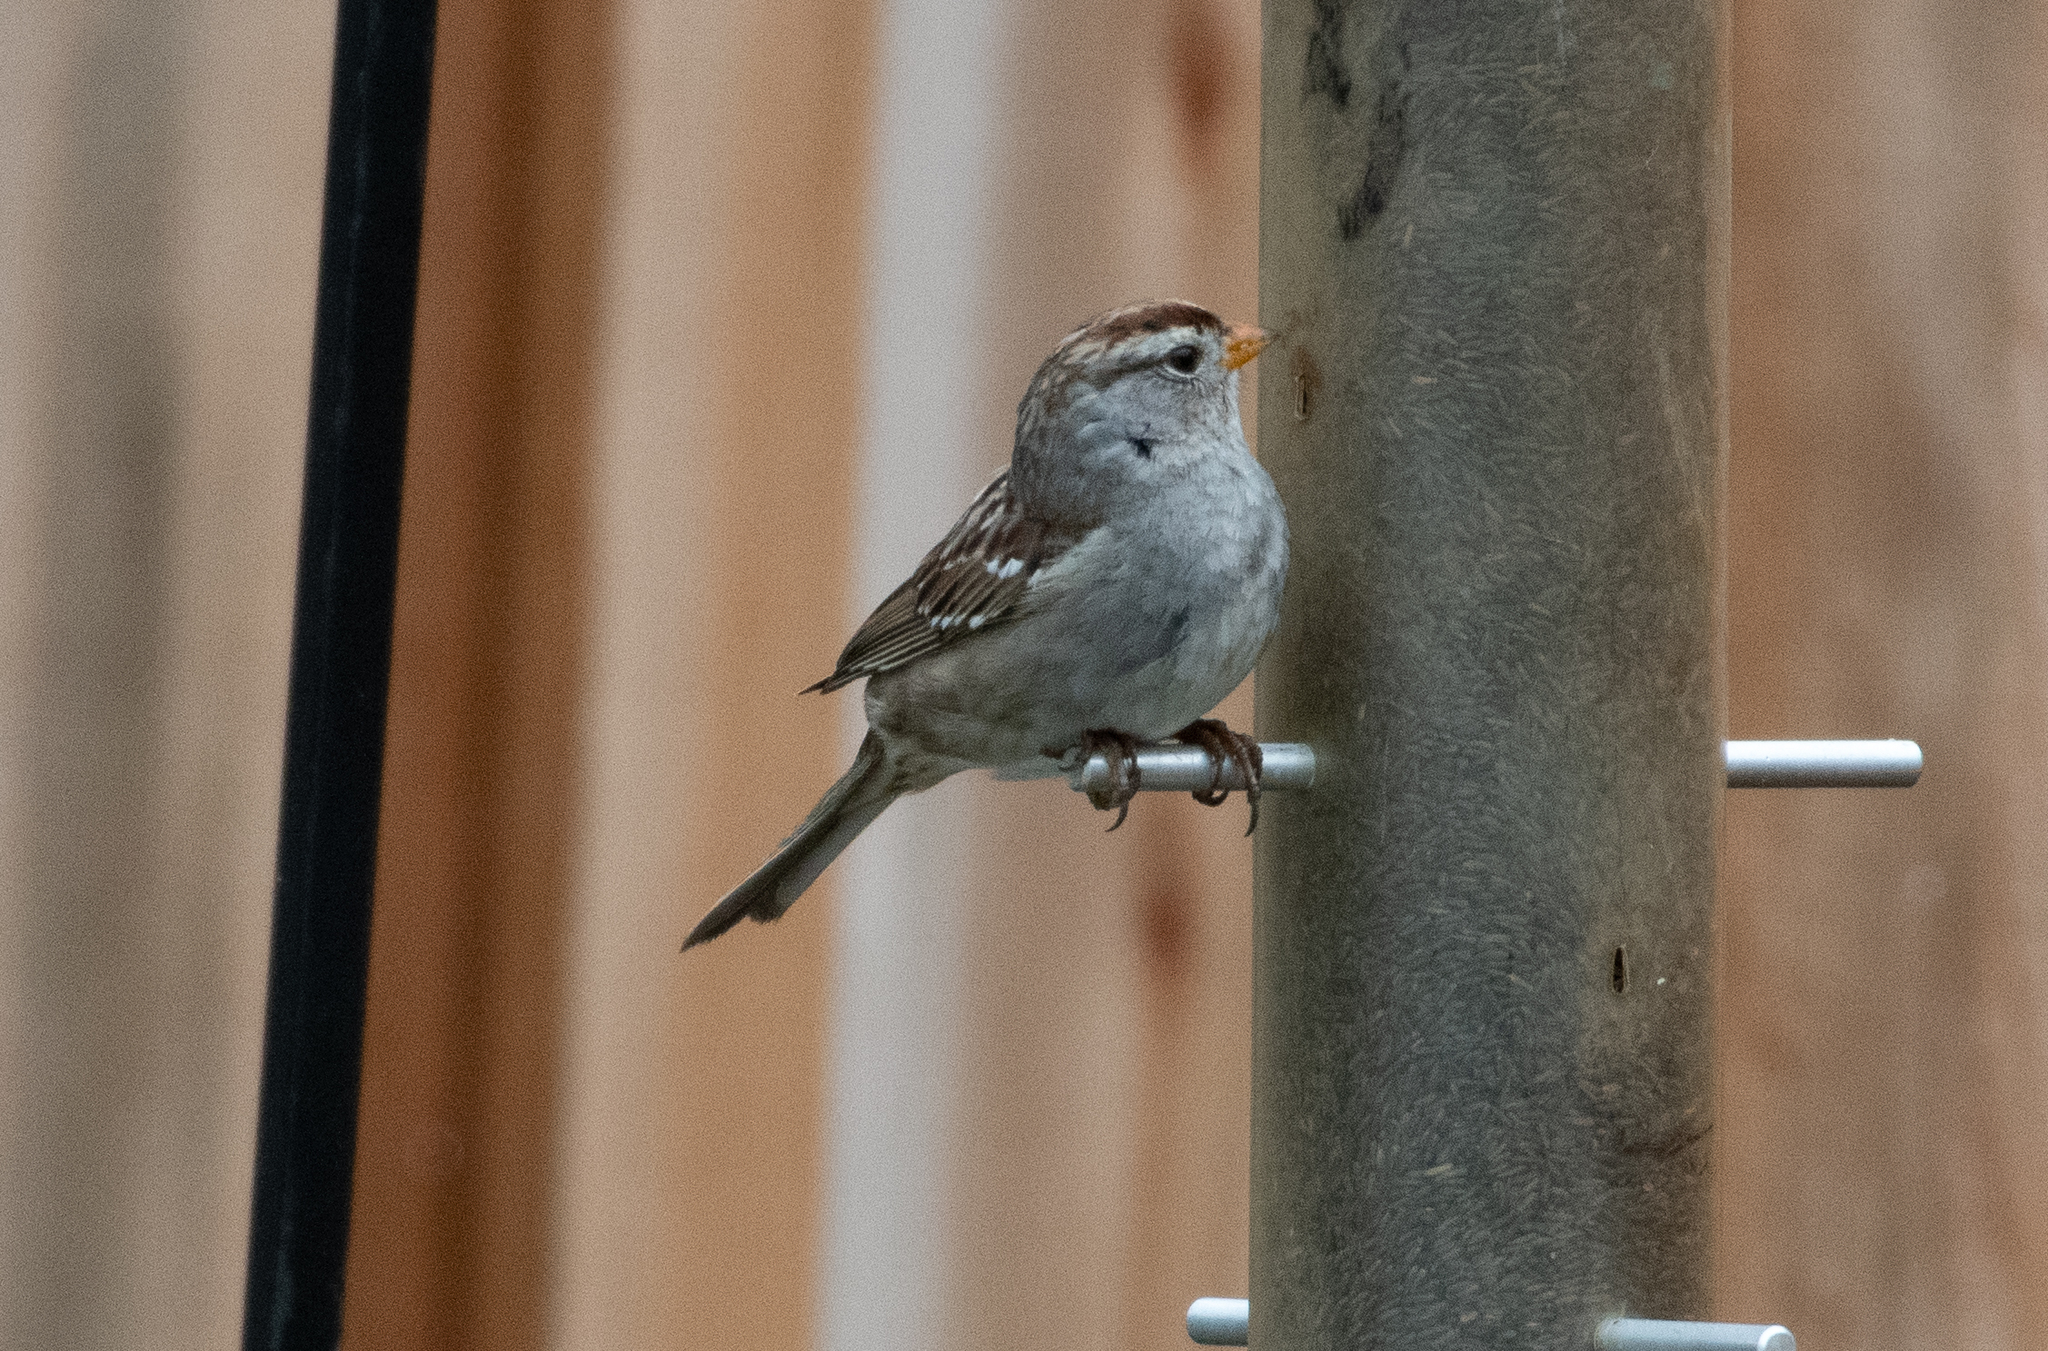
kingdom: Animalia
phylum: Chordata
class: Aves
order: Passeriformes
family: Passerellidae
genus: Zonotrichia
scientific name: Zonotrichia leucophrys
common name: White-crowned sparrow
